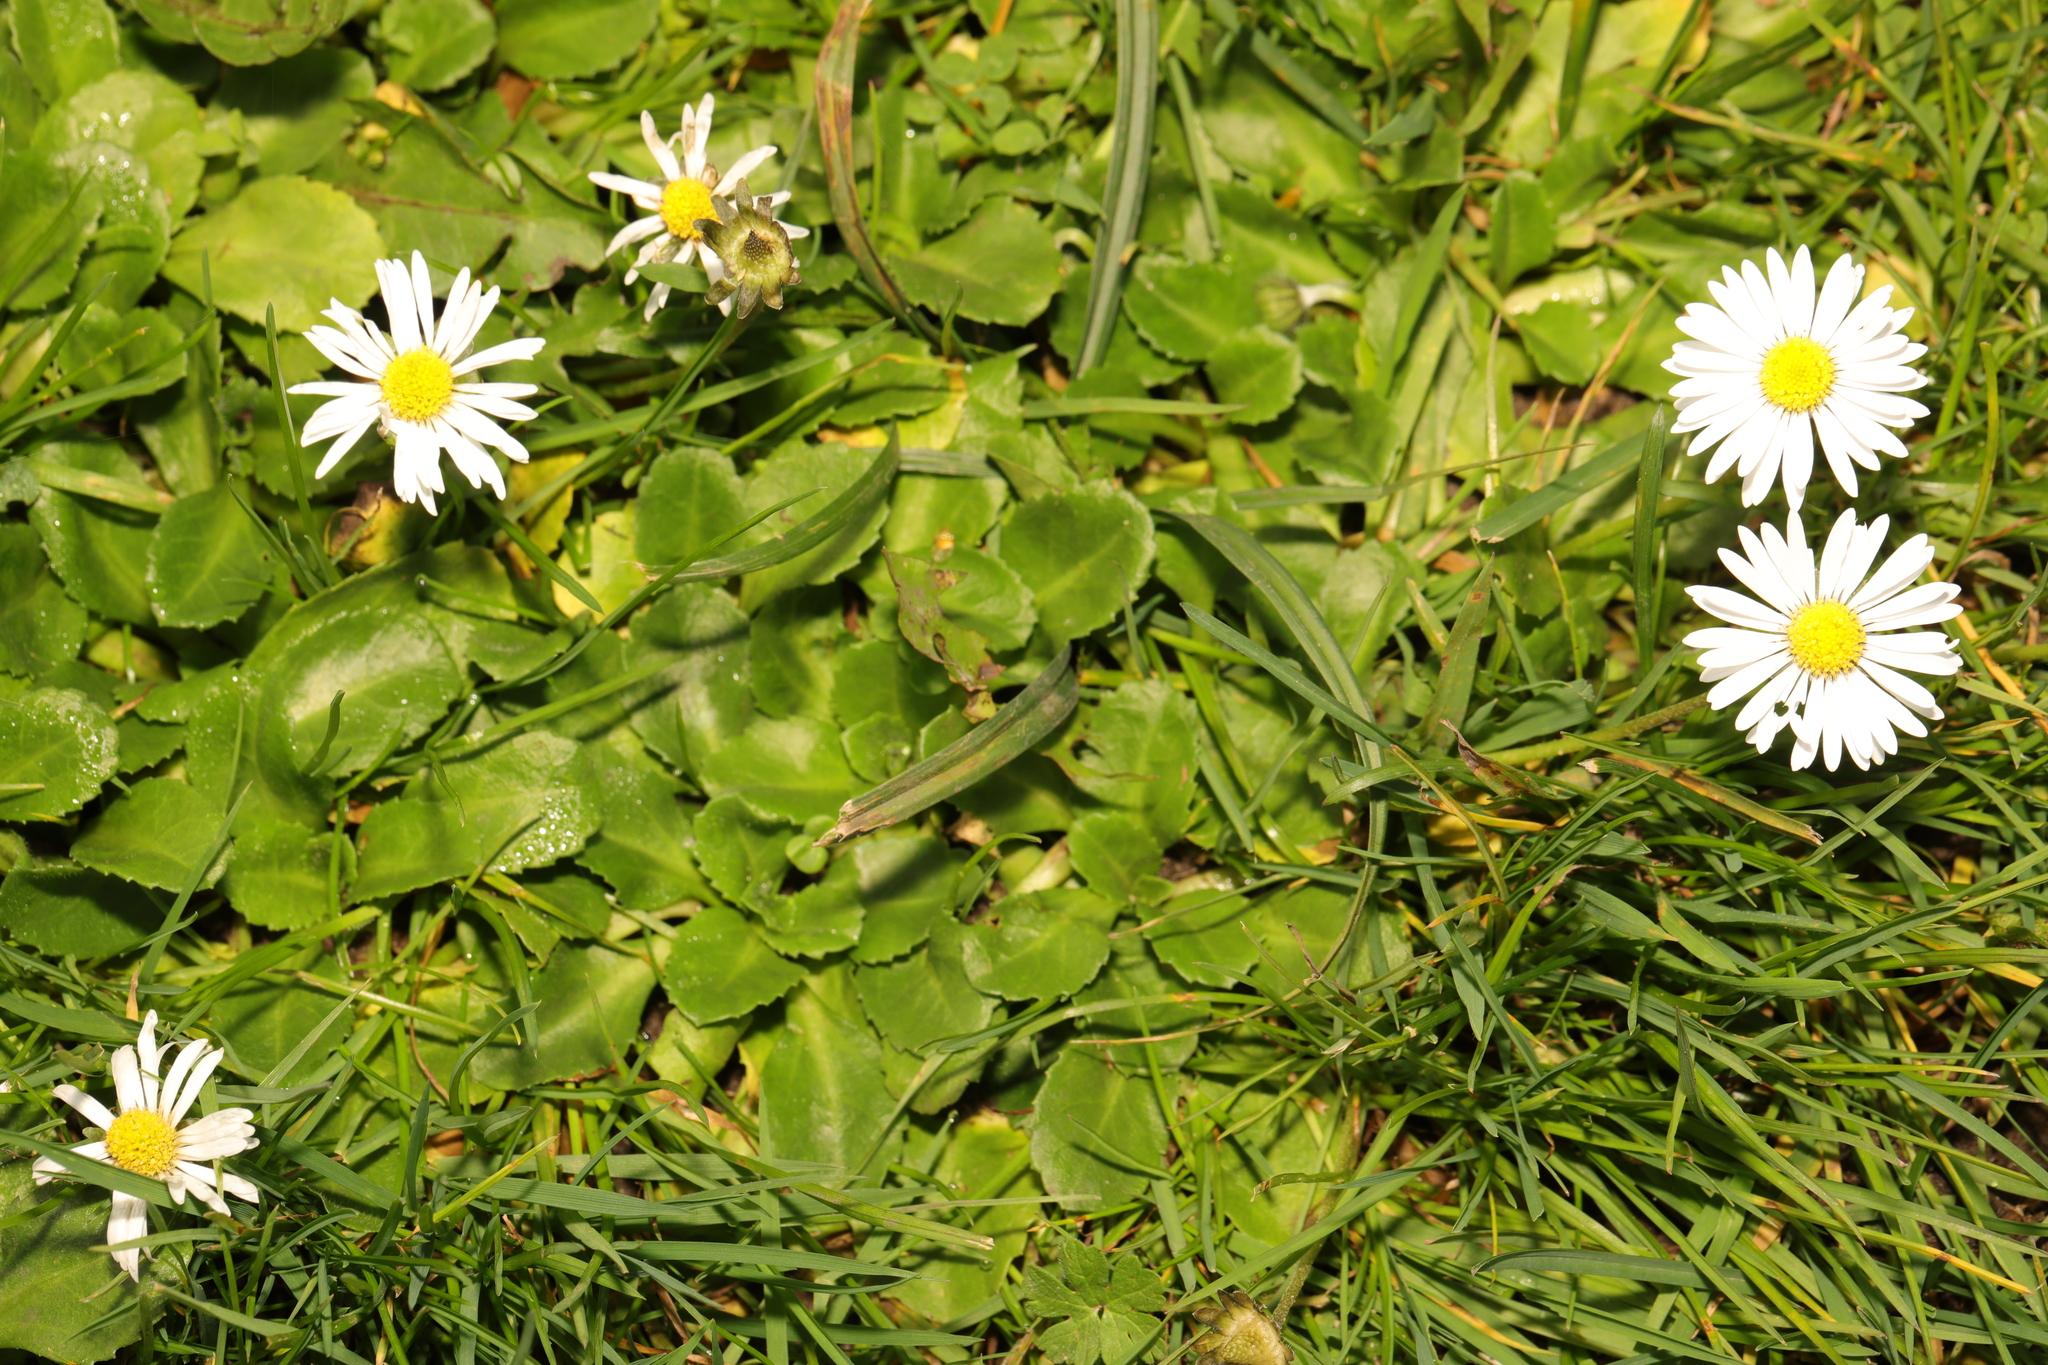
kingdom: Plantae
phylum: Tracheophyta
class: Magnoliopsida
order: Asterales
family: Asteraceae
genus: Bellis
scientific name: Bellis perennis
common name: Lawndaisy
